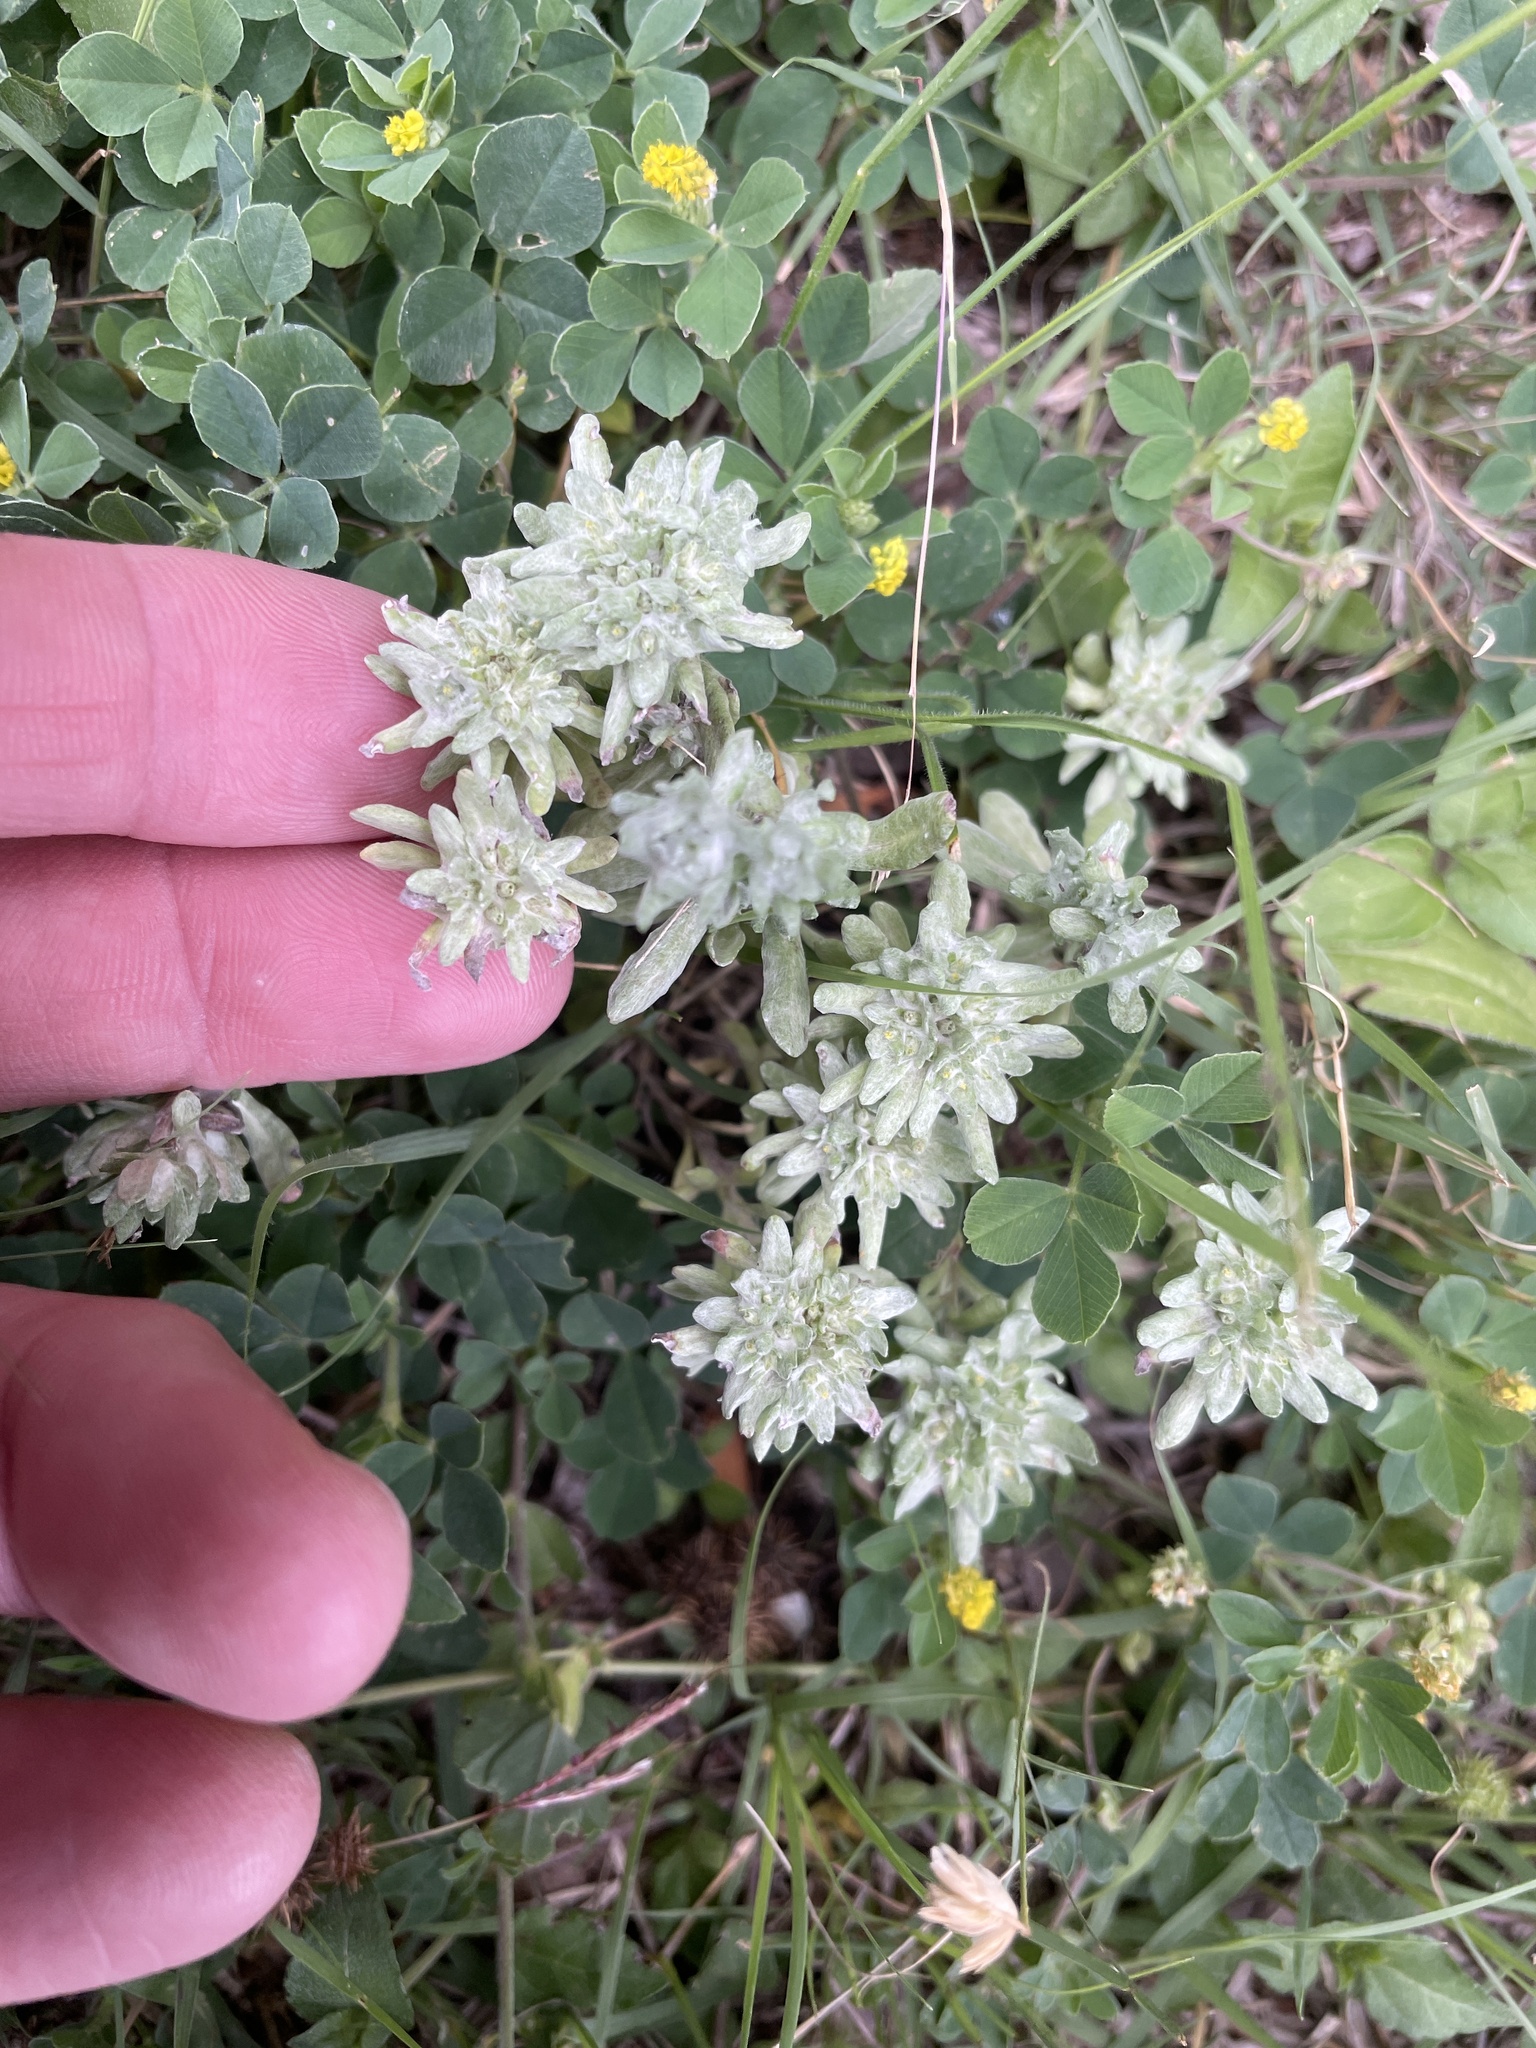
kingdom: Plantae
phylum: Tracheophyta
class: Magnoliopsida
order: Asterales
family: Asteraceae
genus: Diaperia
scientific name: Diaperia prolifera
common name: Big-head rabbit-tobacco
